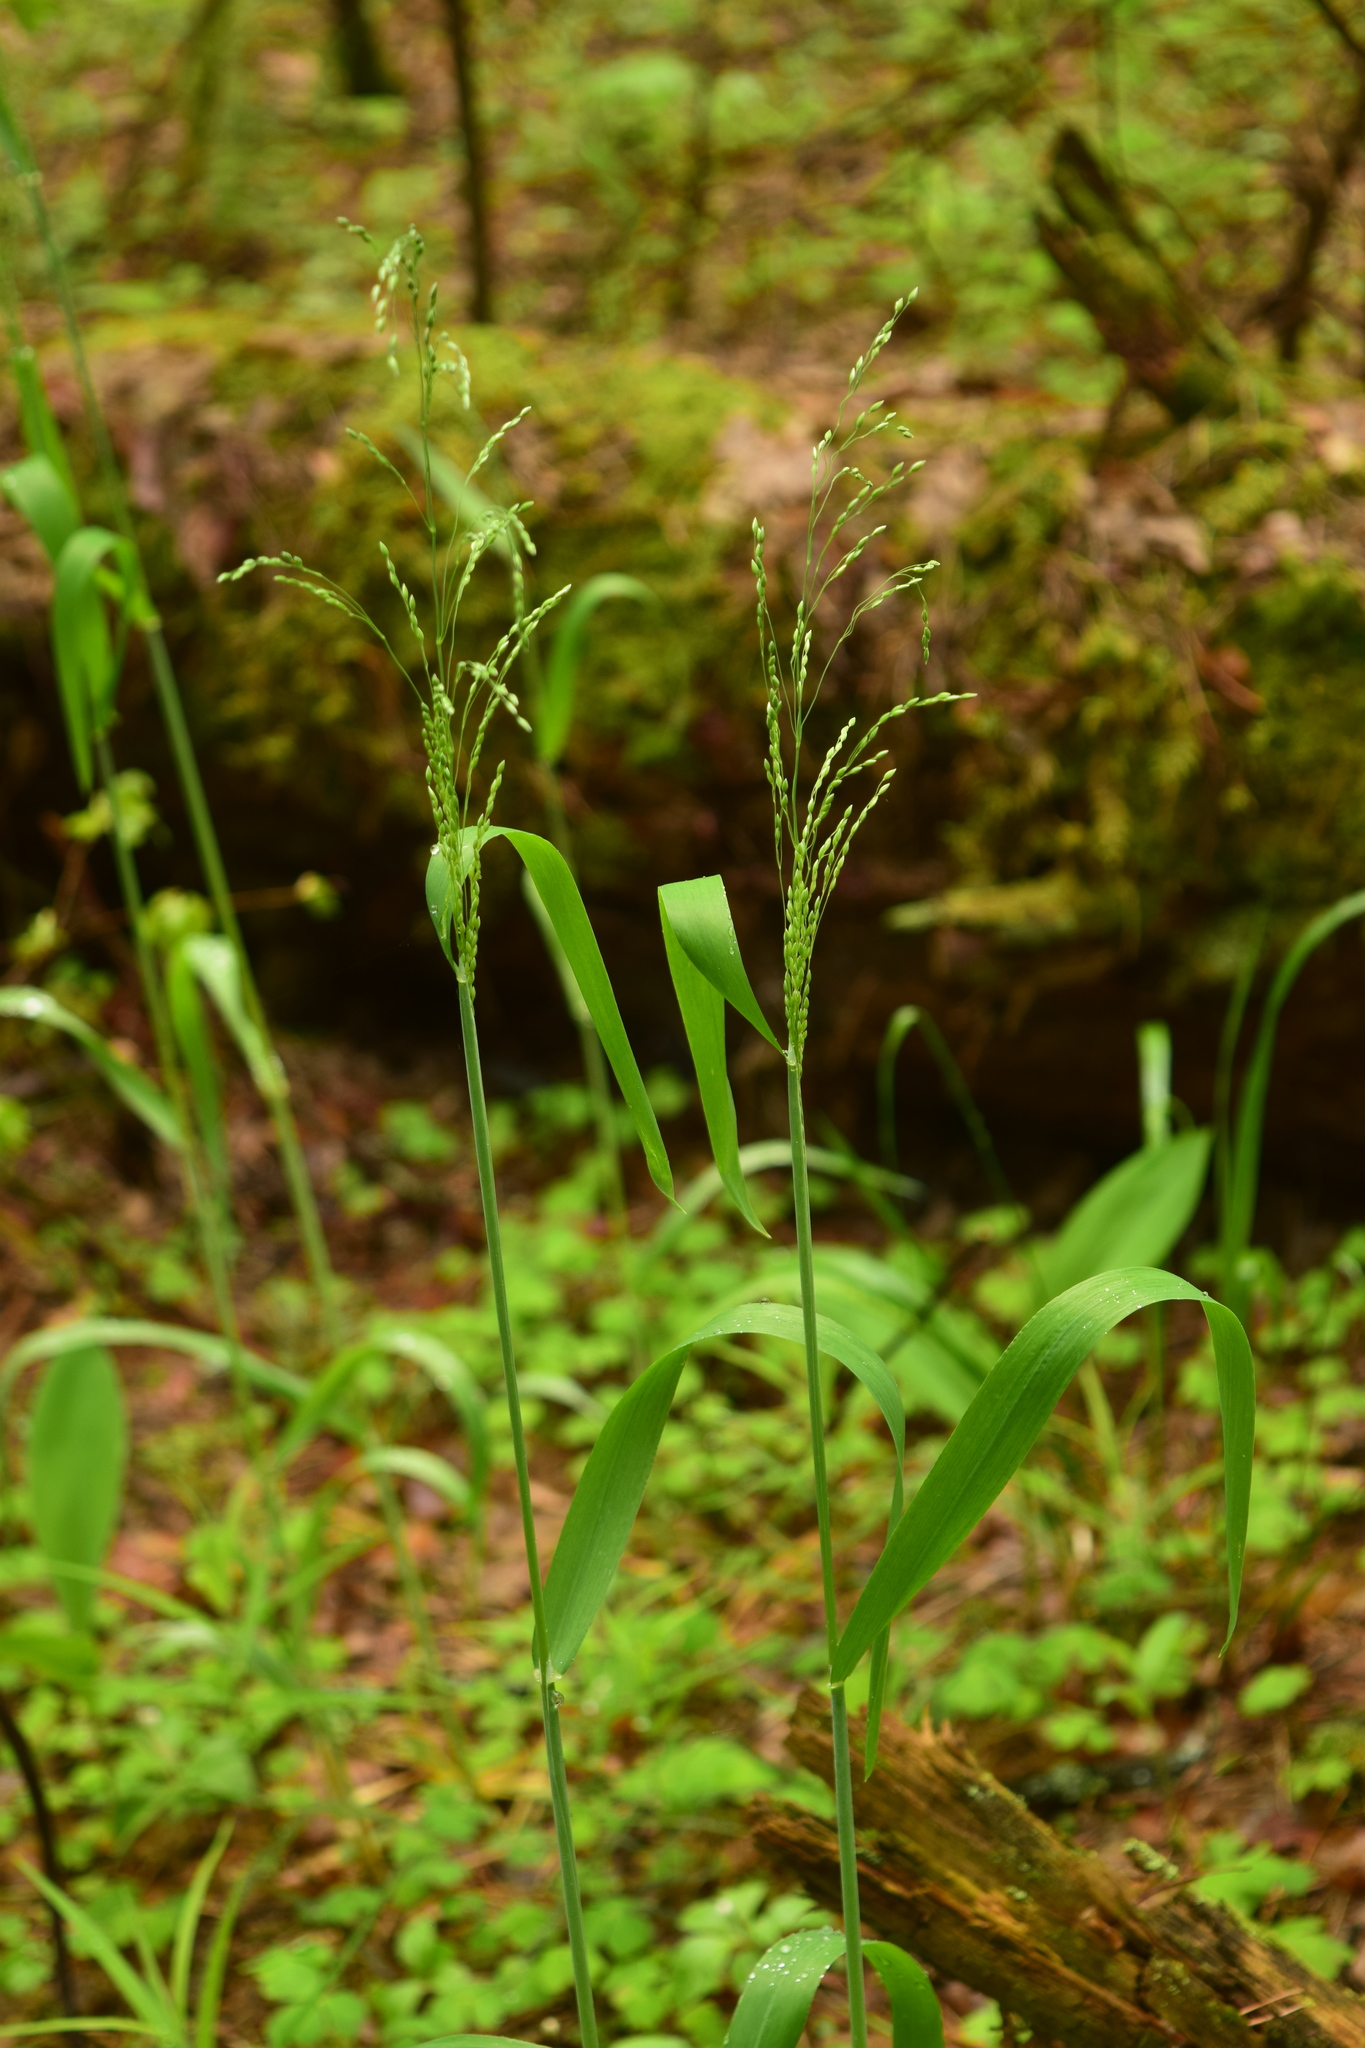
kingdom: Plantae
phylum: Tracheophyta
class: Liliopsida
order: Poales
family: Poaceae
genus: Milium
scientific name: Milium effusum
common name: Wood millet
